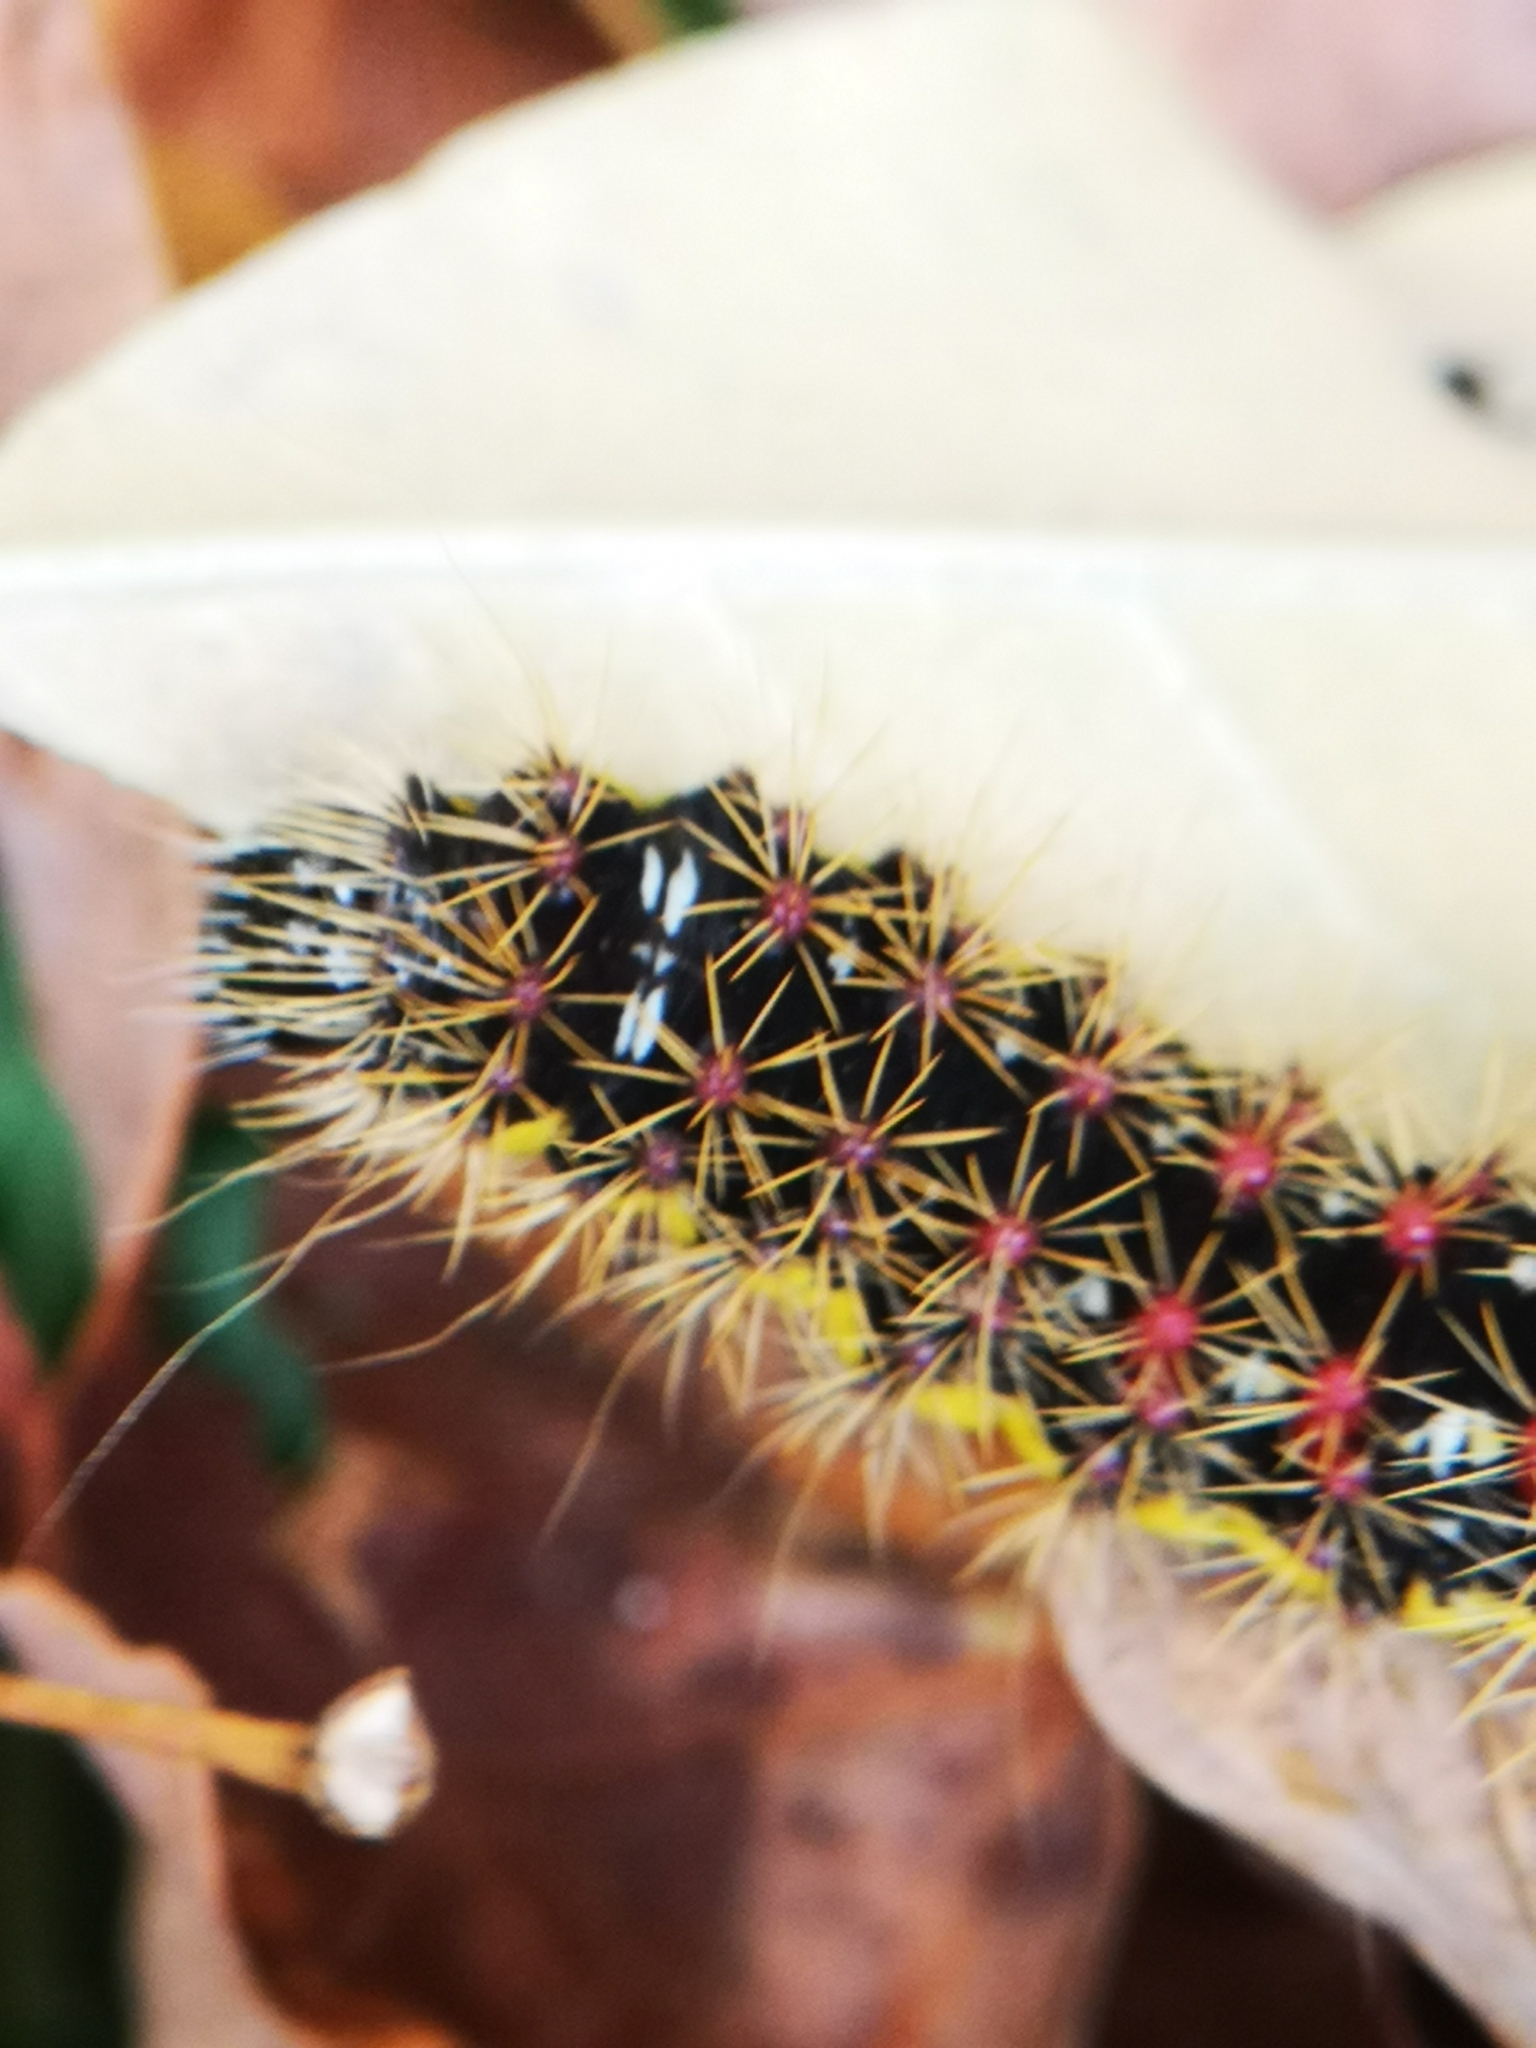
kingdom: Animalia
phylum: Arthropoda
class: Insecta
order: Lepidoptera
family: Noctuidae
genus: Acronicta
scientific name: Acronicta oblinita
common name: Smeared dagger
